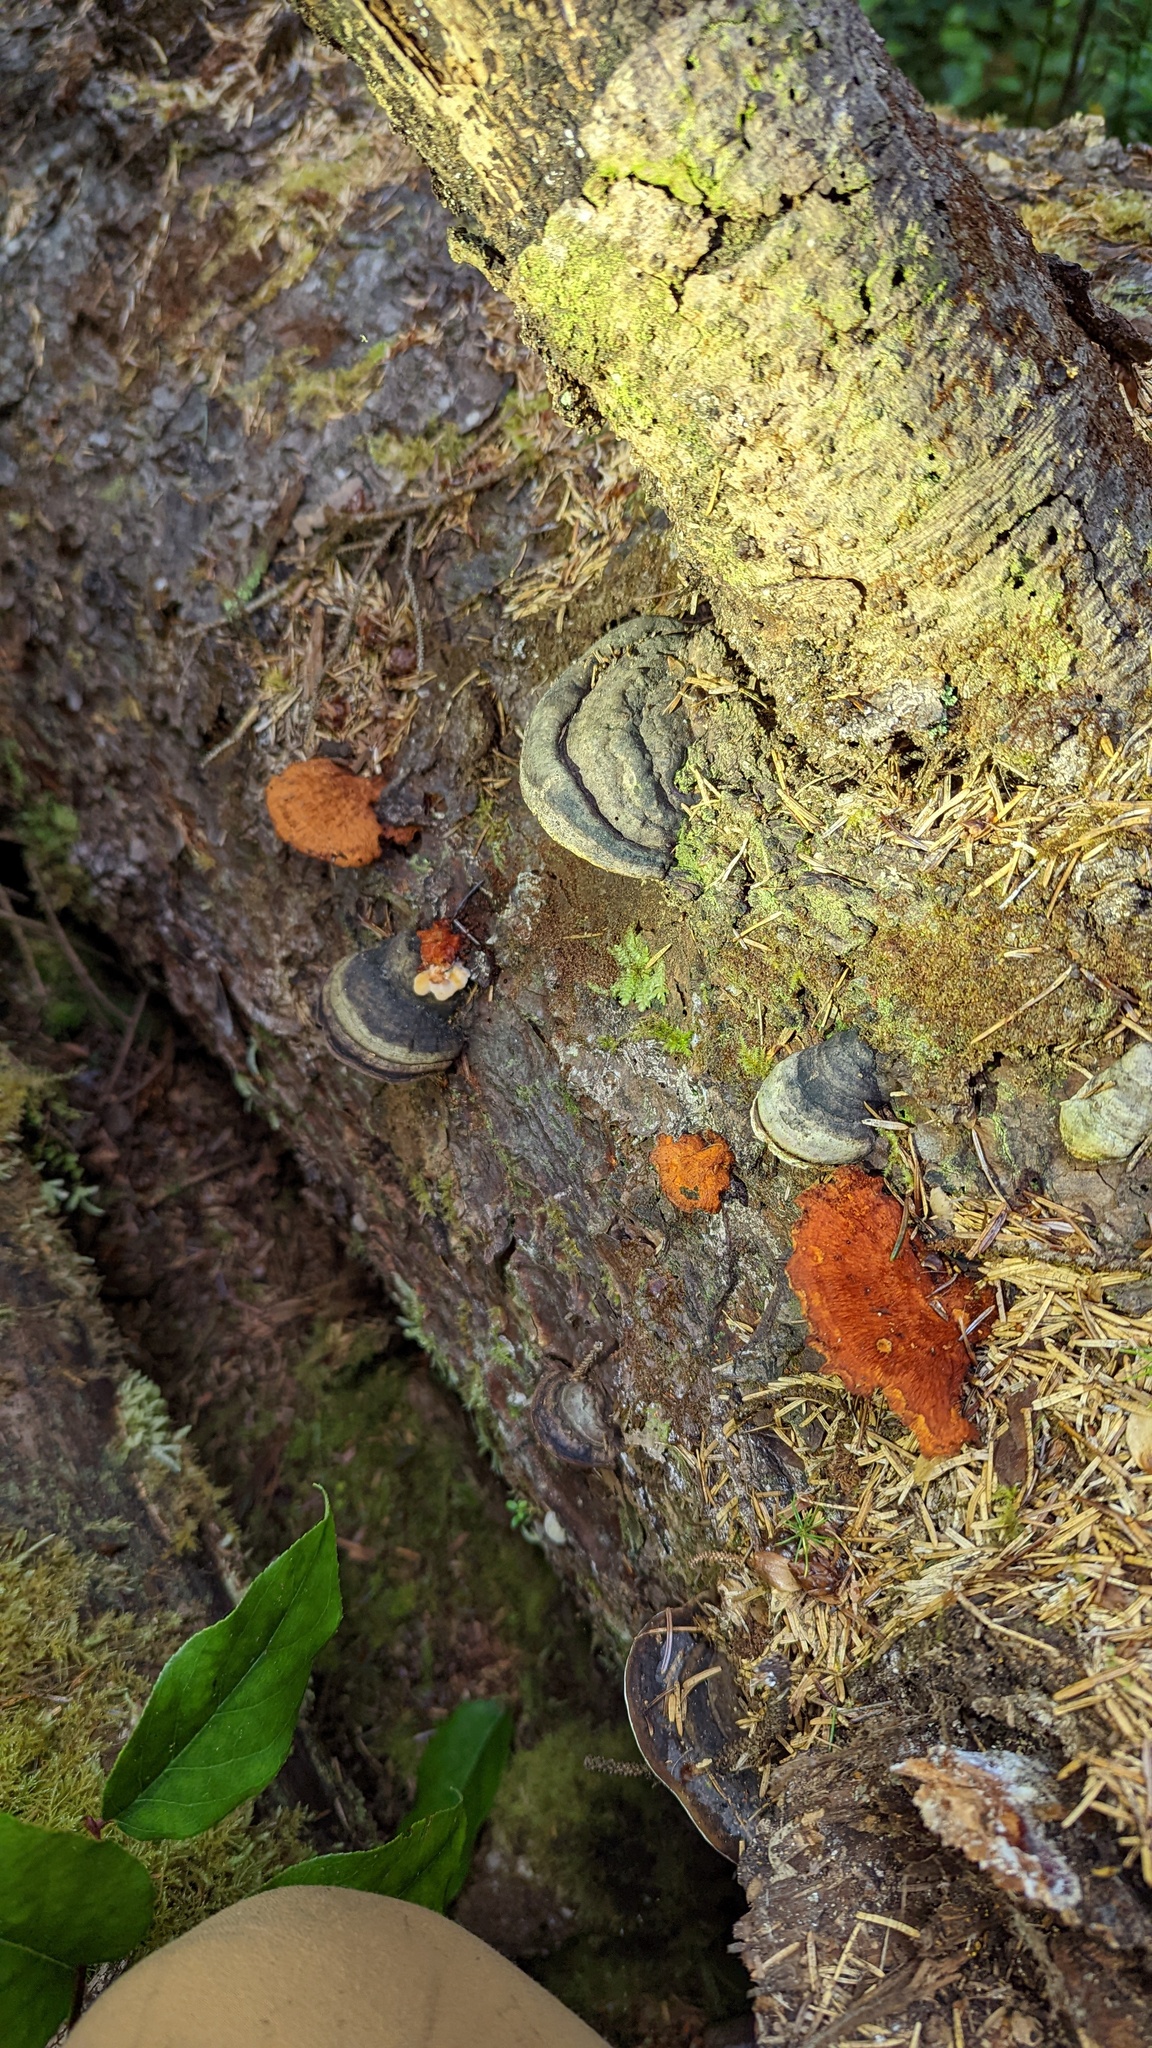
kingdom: Fungi
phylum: Basidiomycota
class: Agaricomycetes
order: Polyporales
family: Pycnoporellaceae
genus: Pycnoporellus
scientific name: Pycnoporellus fulgens
